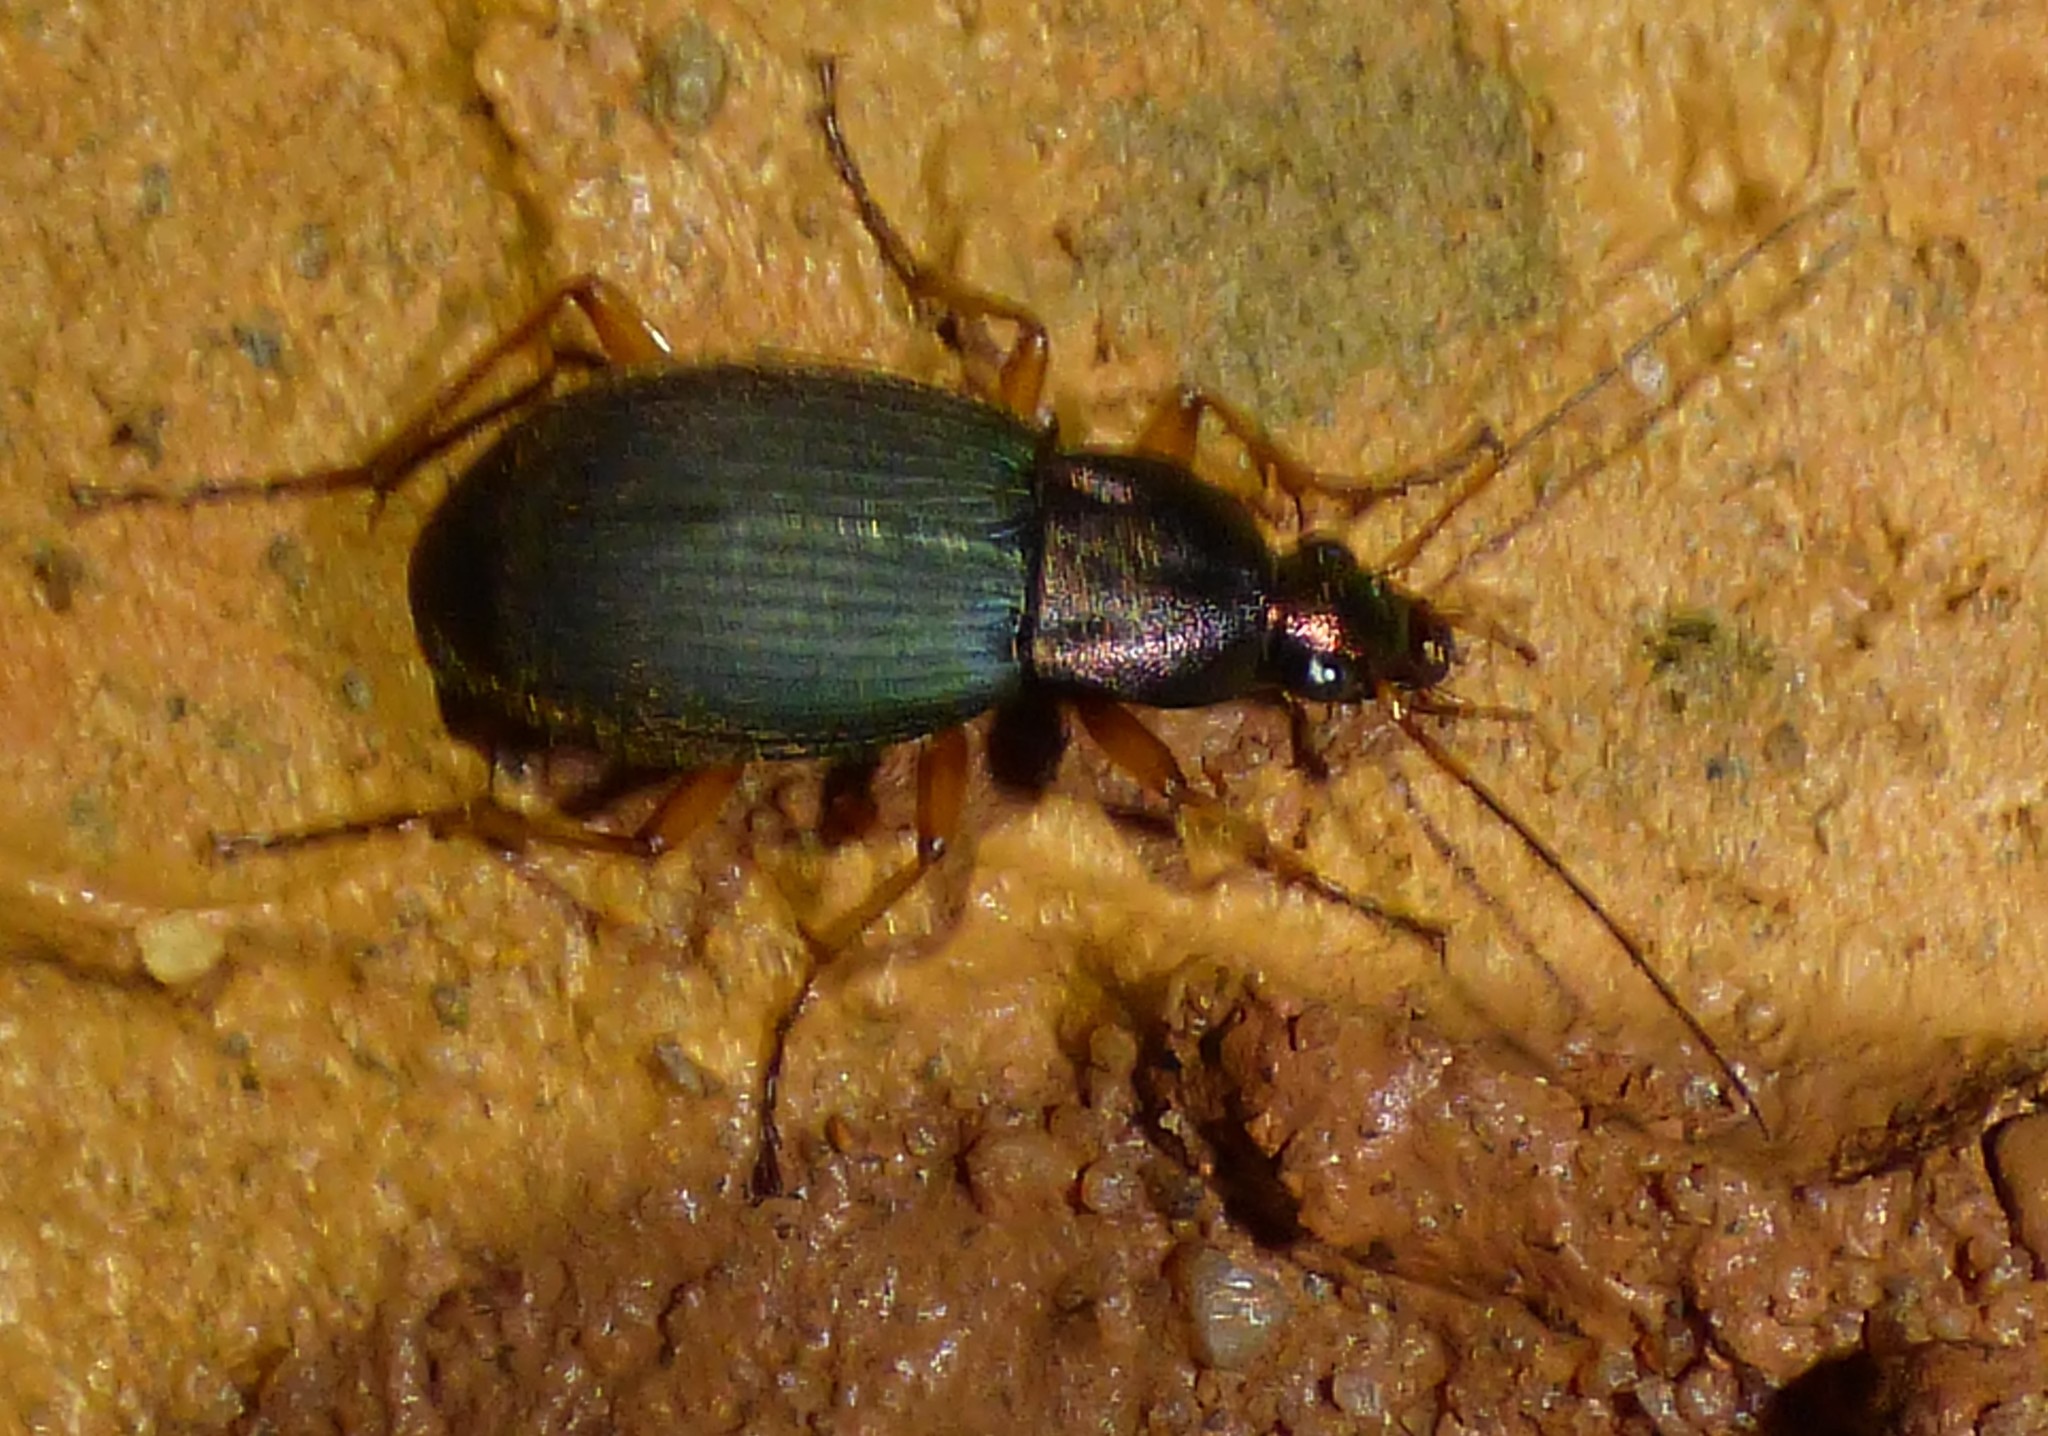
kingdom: Animalia
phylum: Arthropoda
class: Insecta
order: Coleoptera
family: Carabidae
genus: Chlaenius
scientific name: Chlaenius aestivus
